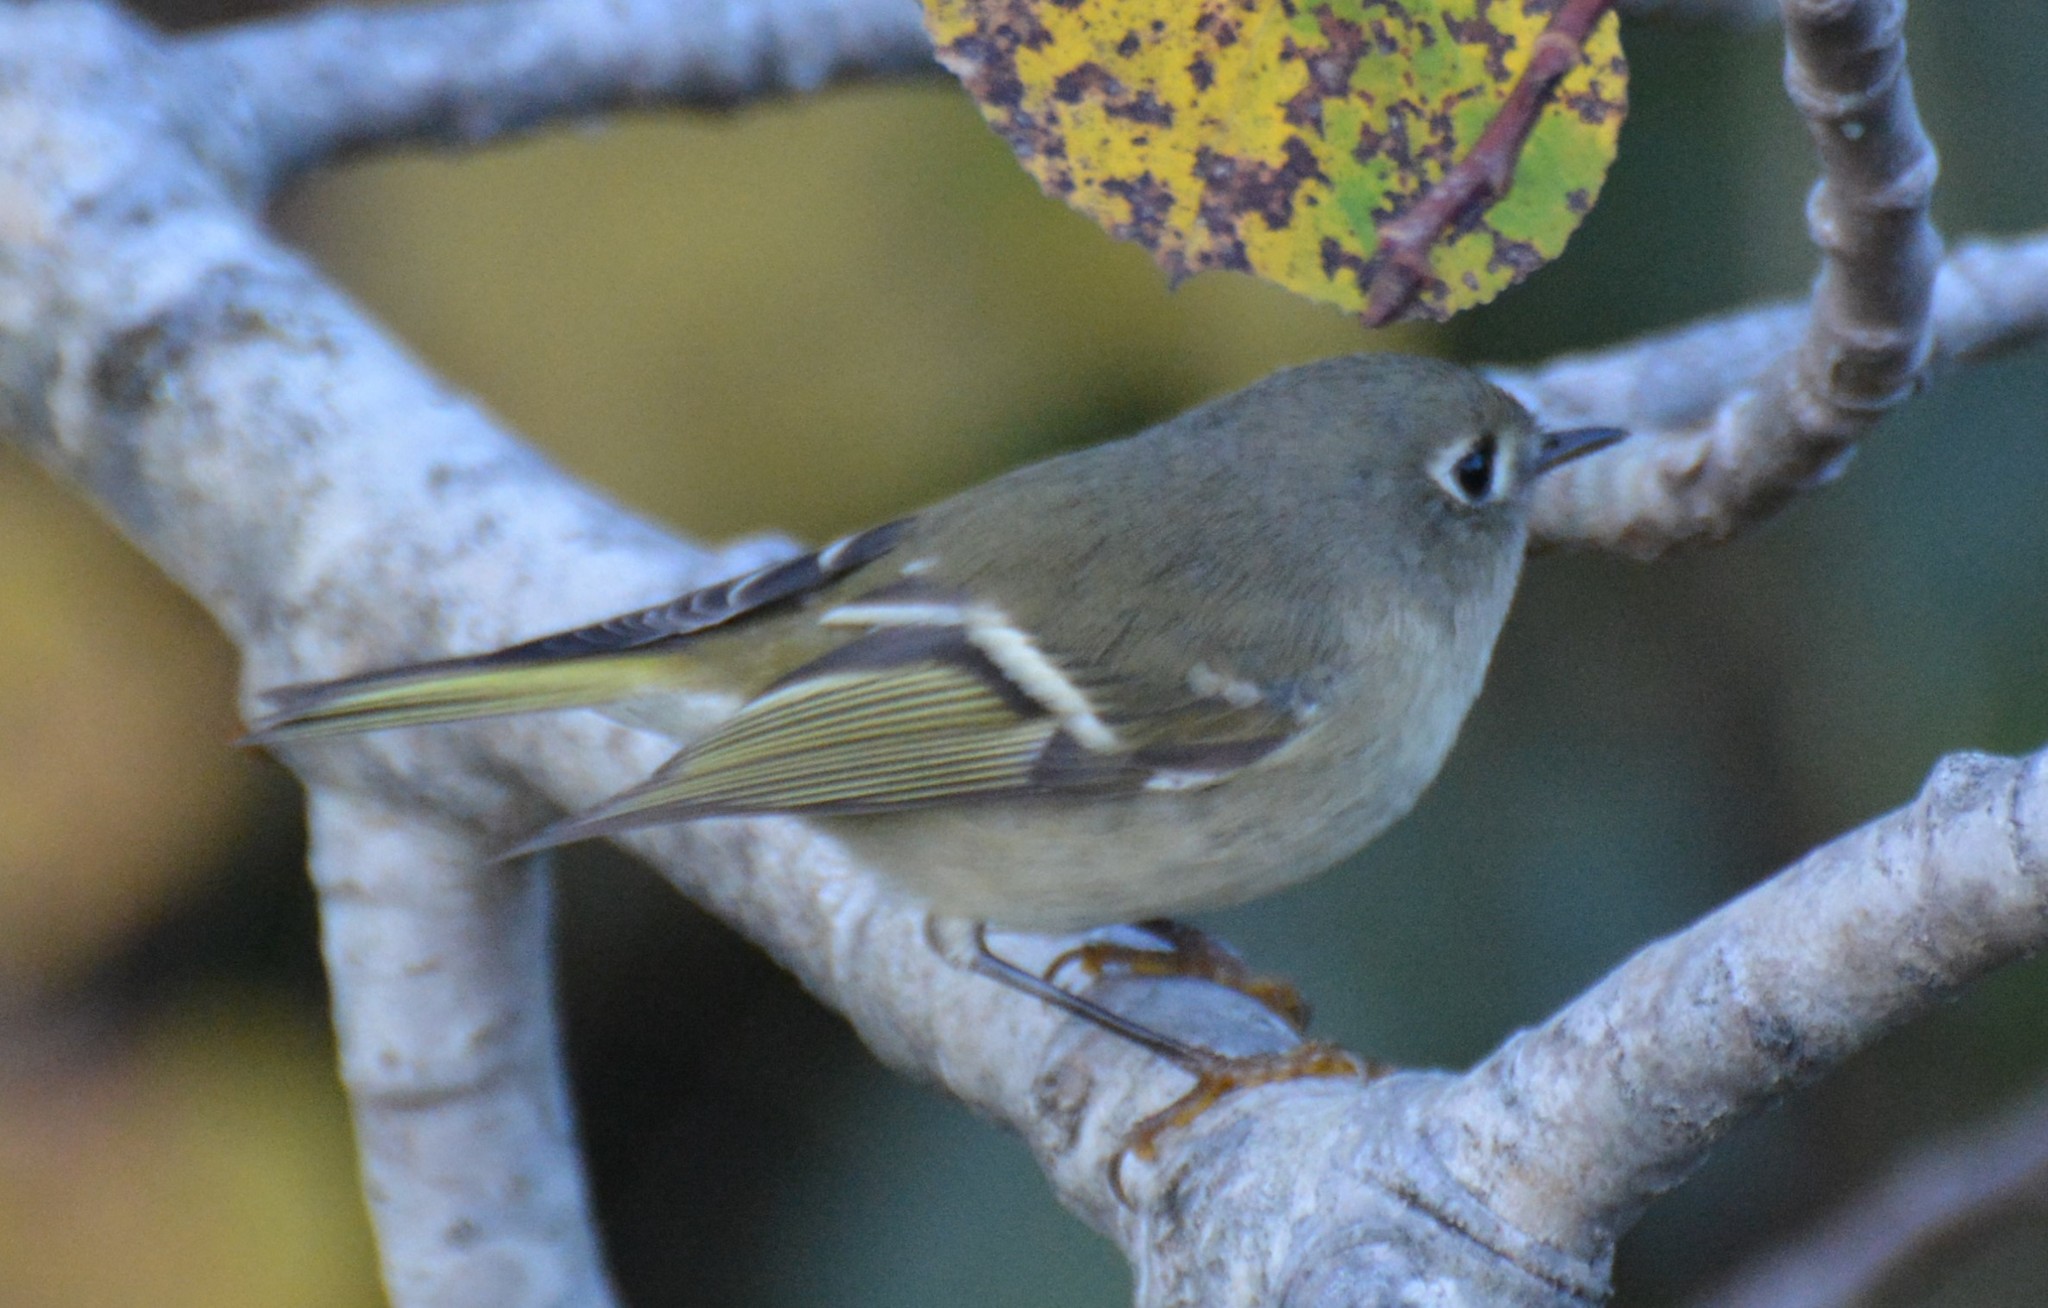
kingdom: Animalia
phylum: Chordata
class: Aves
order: Passeriformes
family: Regulidae
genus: Regulus
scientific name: Regulus calendula
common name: Ruby-crowned kinglet
